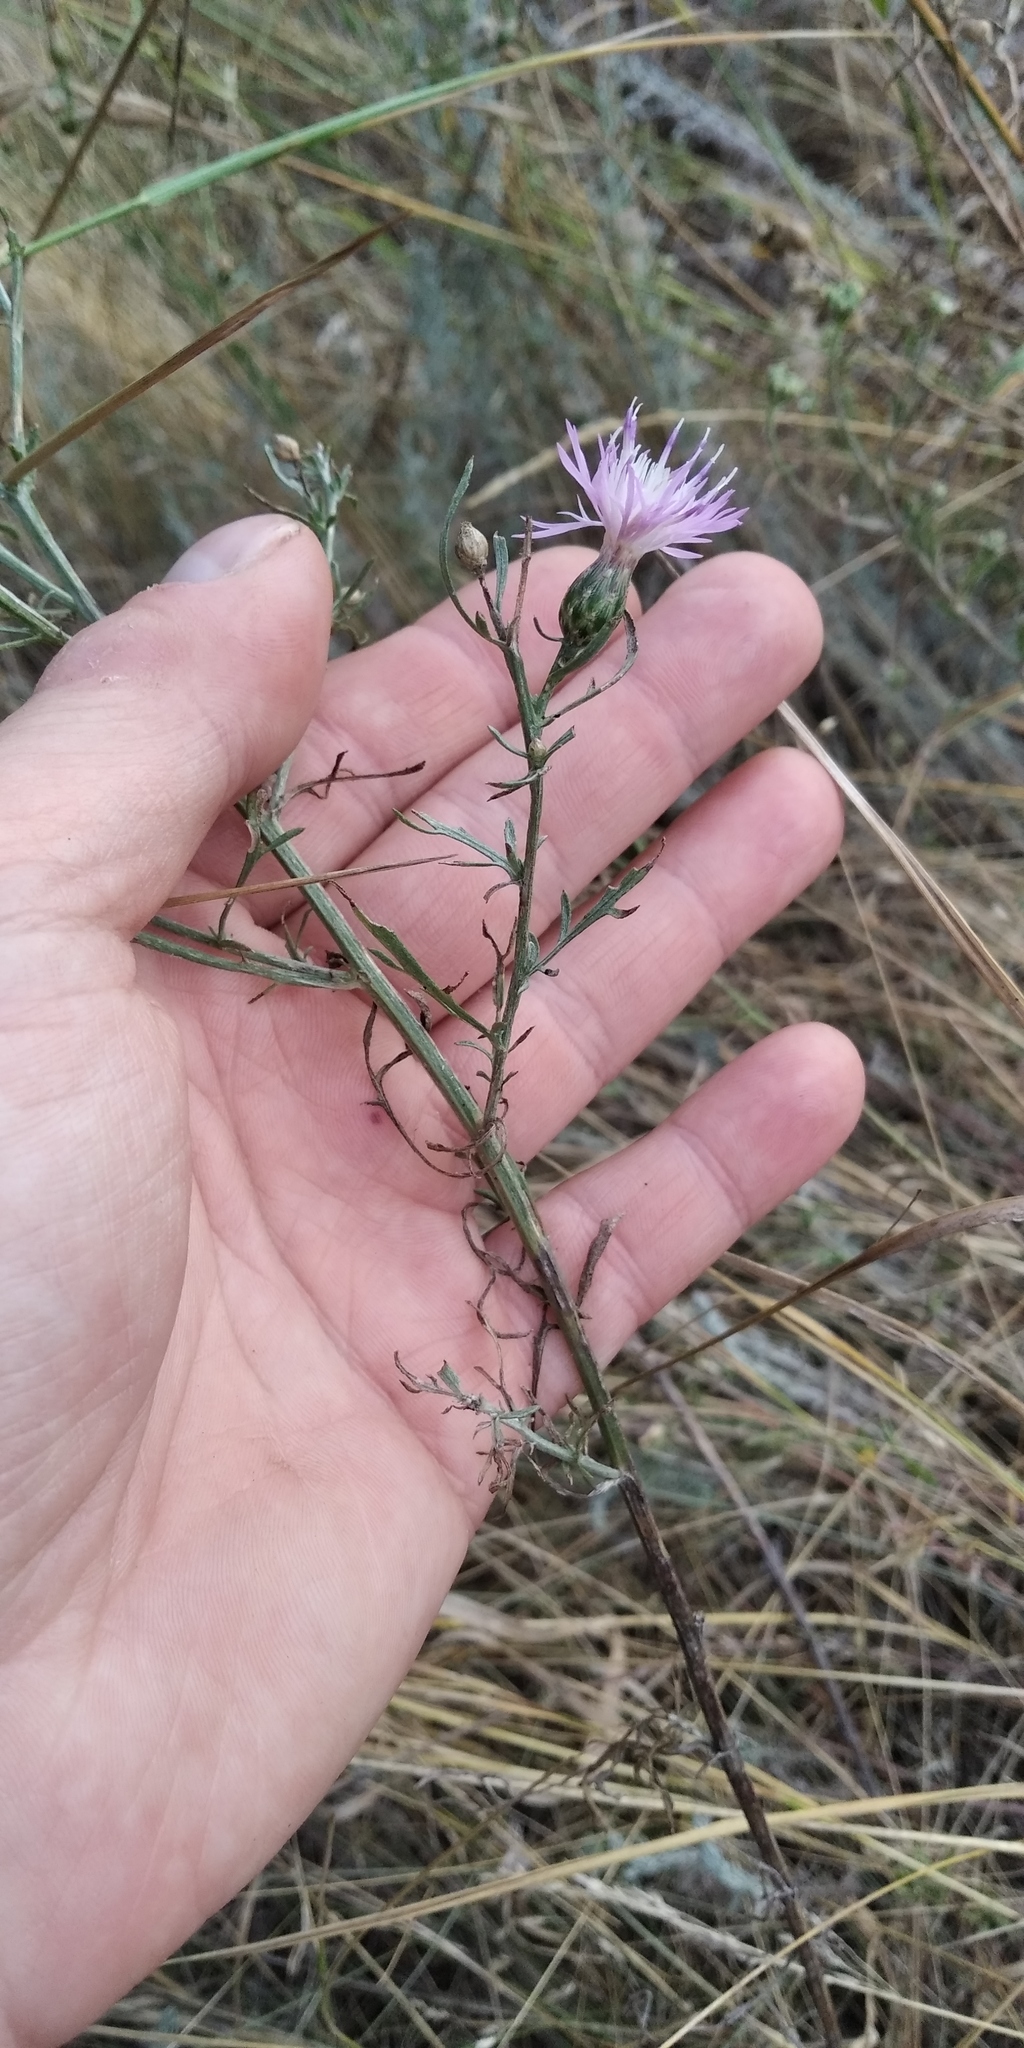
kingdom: Plantae
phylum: Tracheophyta
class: Magnoliopsida
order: Asterales
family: Asteraceae
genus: Centaurea
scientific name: Centaurea borysthenica
